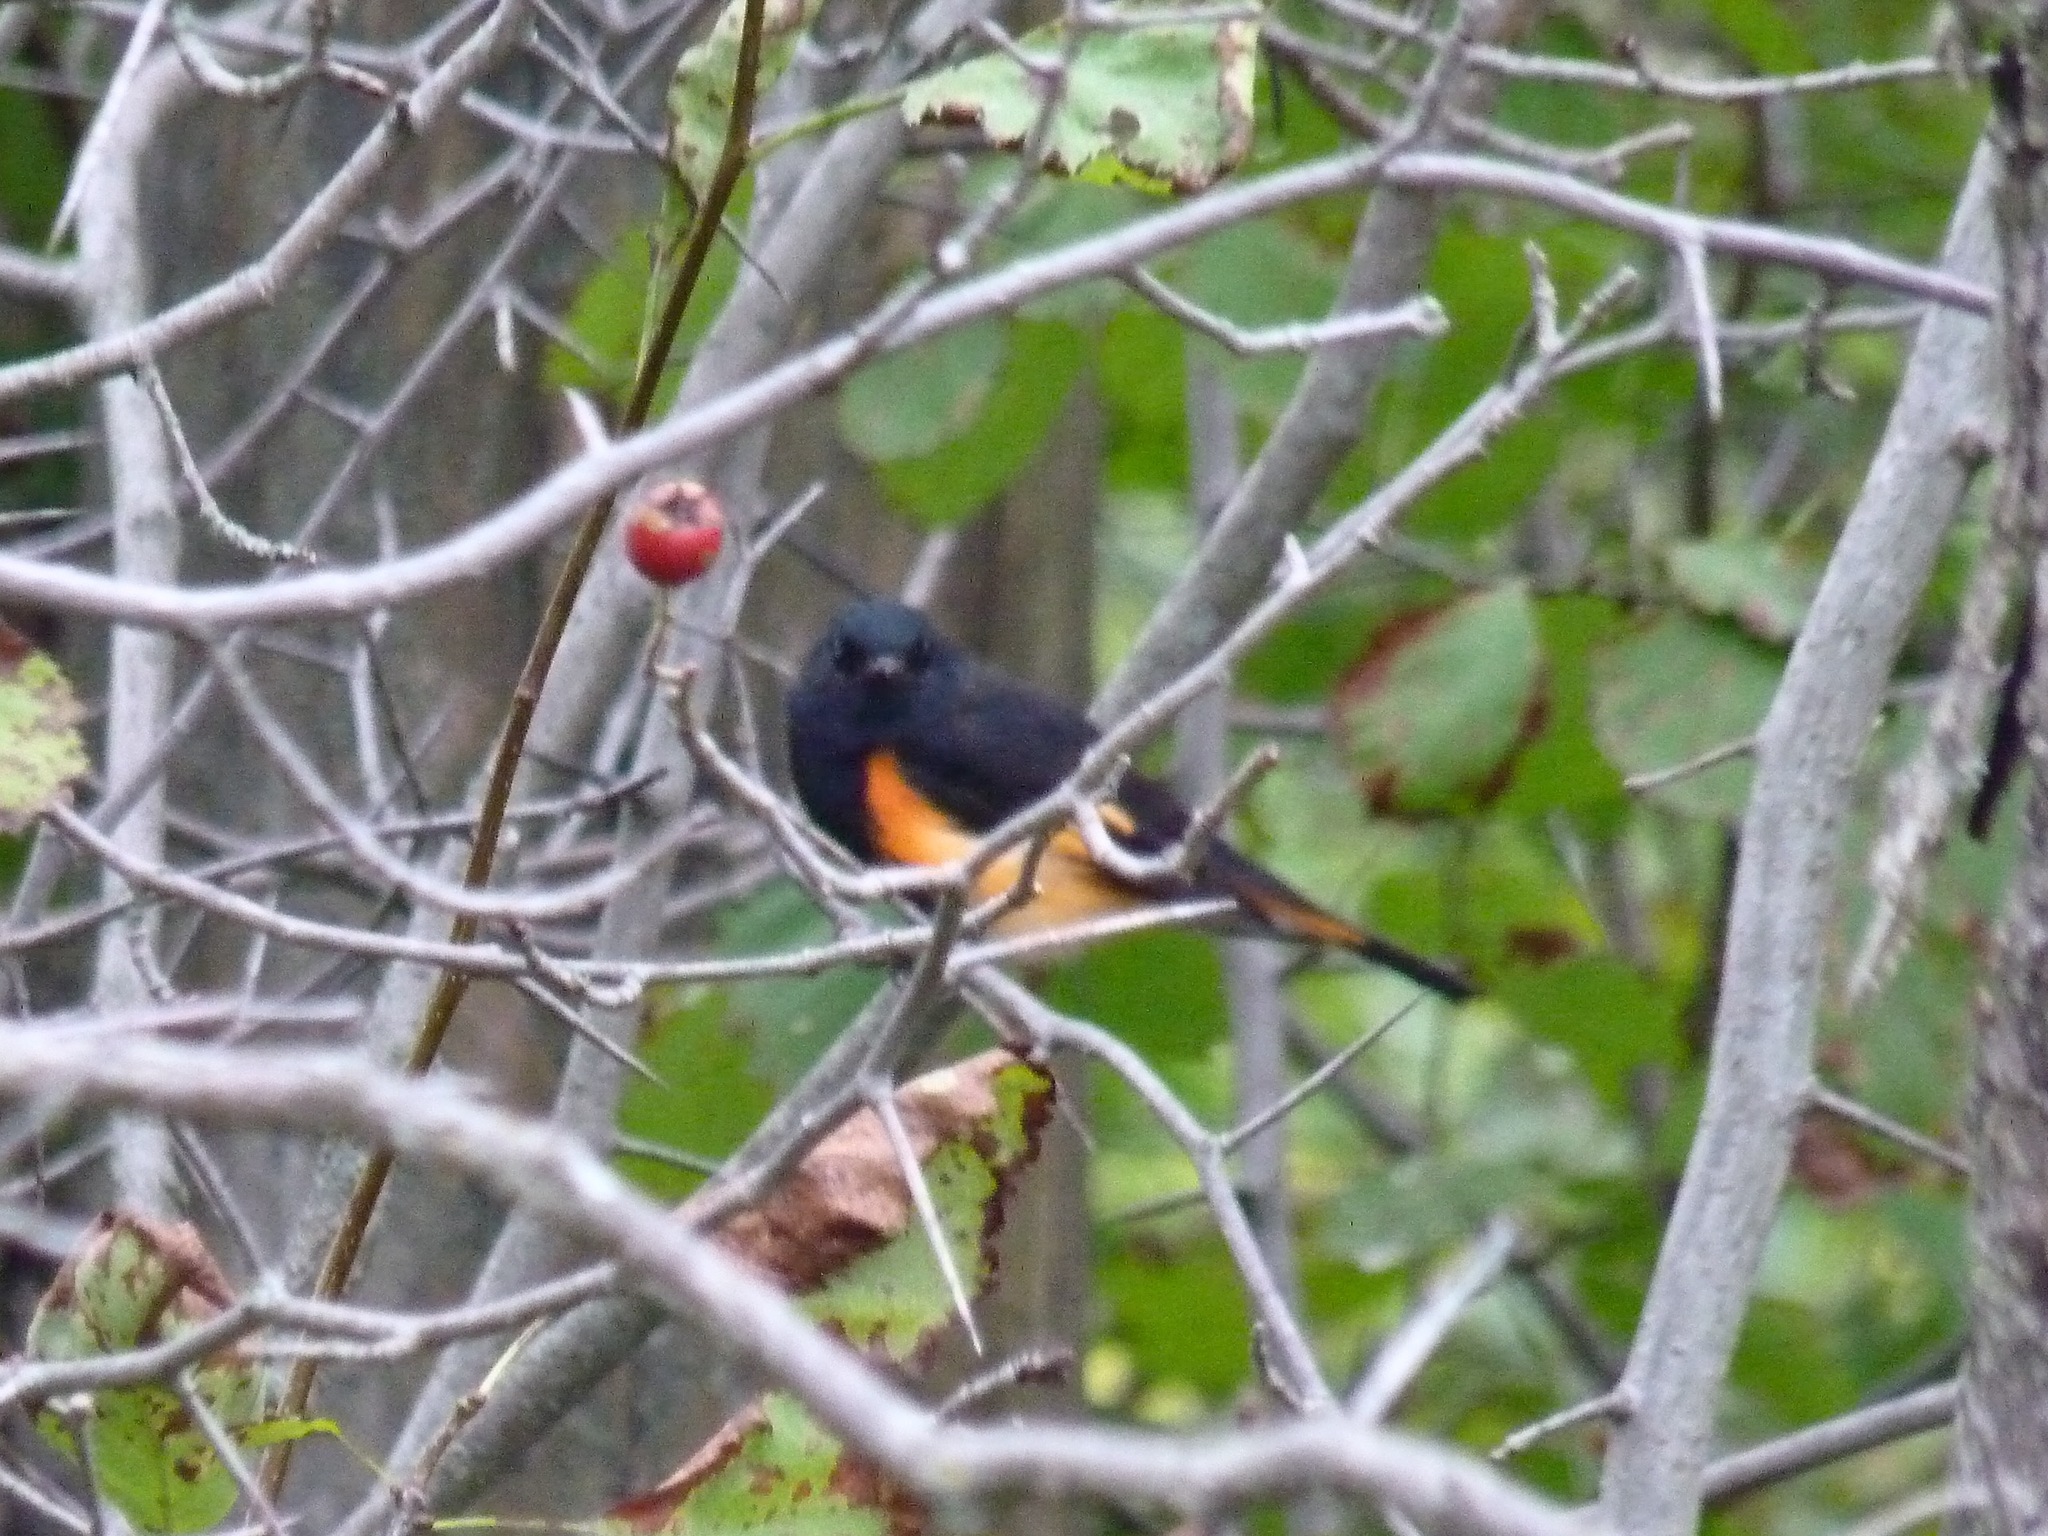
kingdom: Animalia
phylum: Chordata
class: Aves
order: Passeriformes
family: Parulidae
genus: Setophaga
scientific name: Setophaga ruticilla
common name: American redstart
